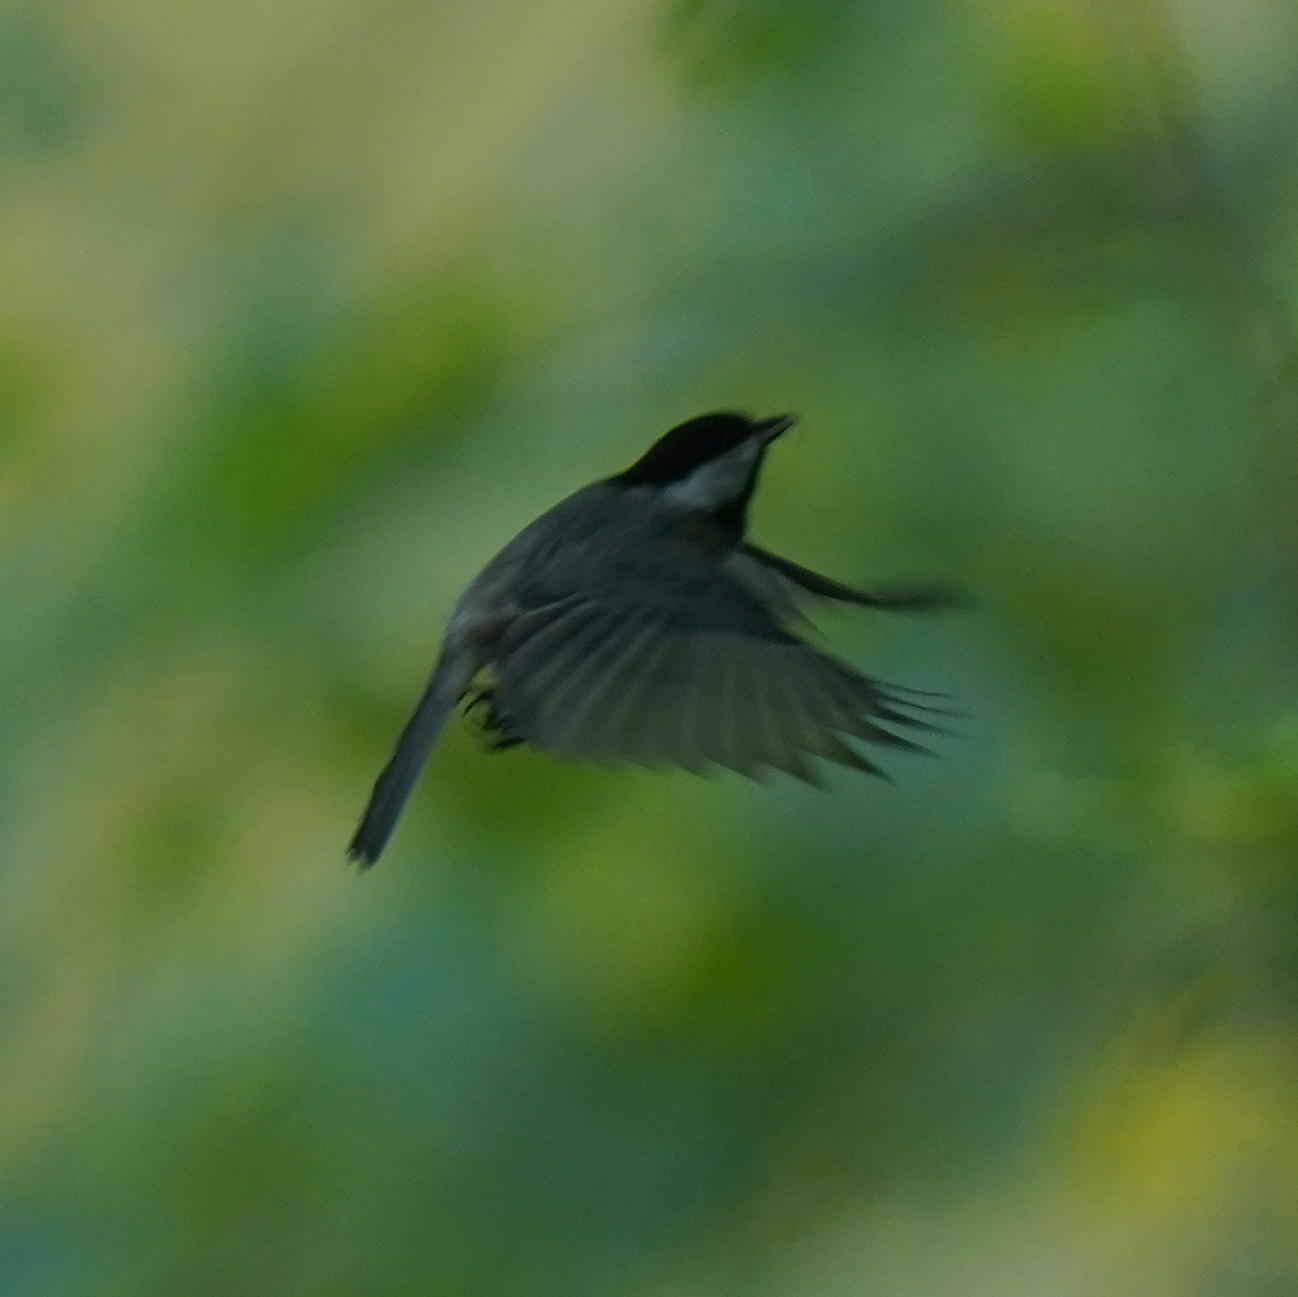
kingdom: Animalia
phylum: Chordata
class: Aves
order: Passeriformes
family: Paridae
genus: Poecile
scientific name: Poecile carolinensis
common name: Carolina chickadee
